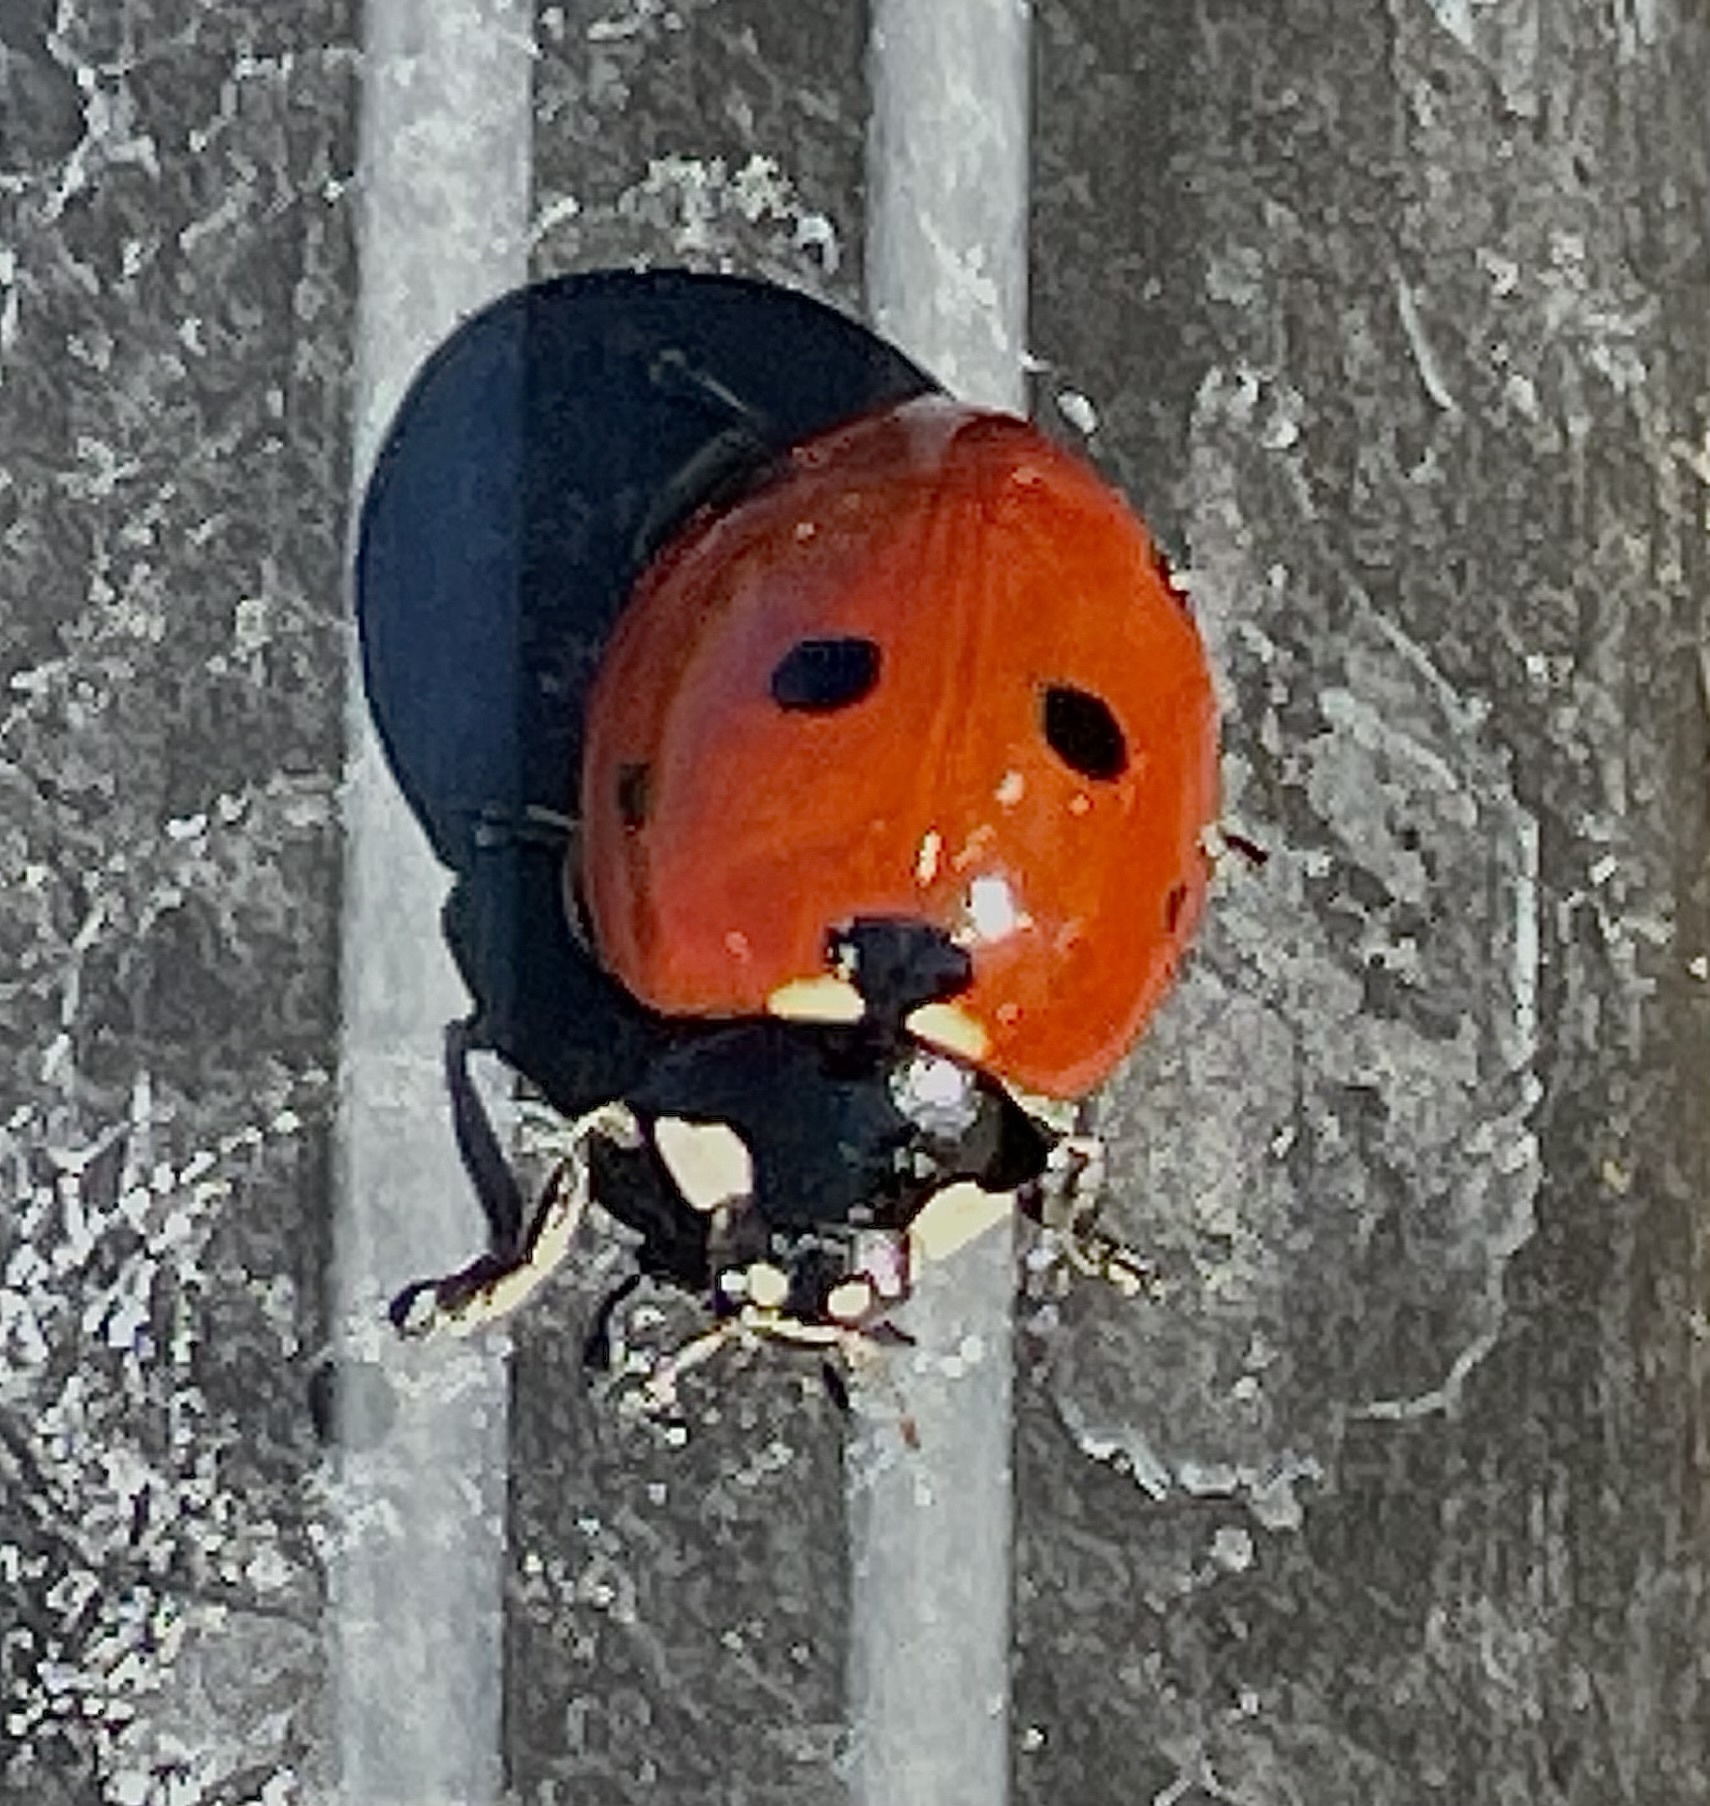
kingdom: Animalia
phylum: Arthropoda
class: Insecta
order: Coleoptera
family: Coccinellidae
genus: Coccinella
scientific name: Coccinella septempunctata
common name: Sevenspotted lady beetle
